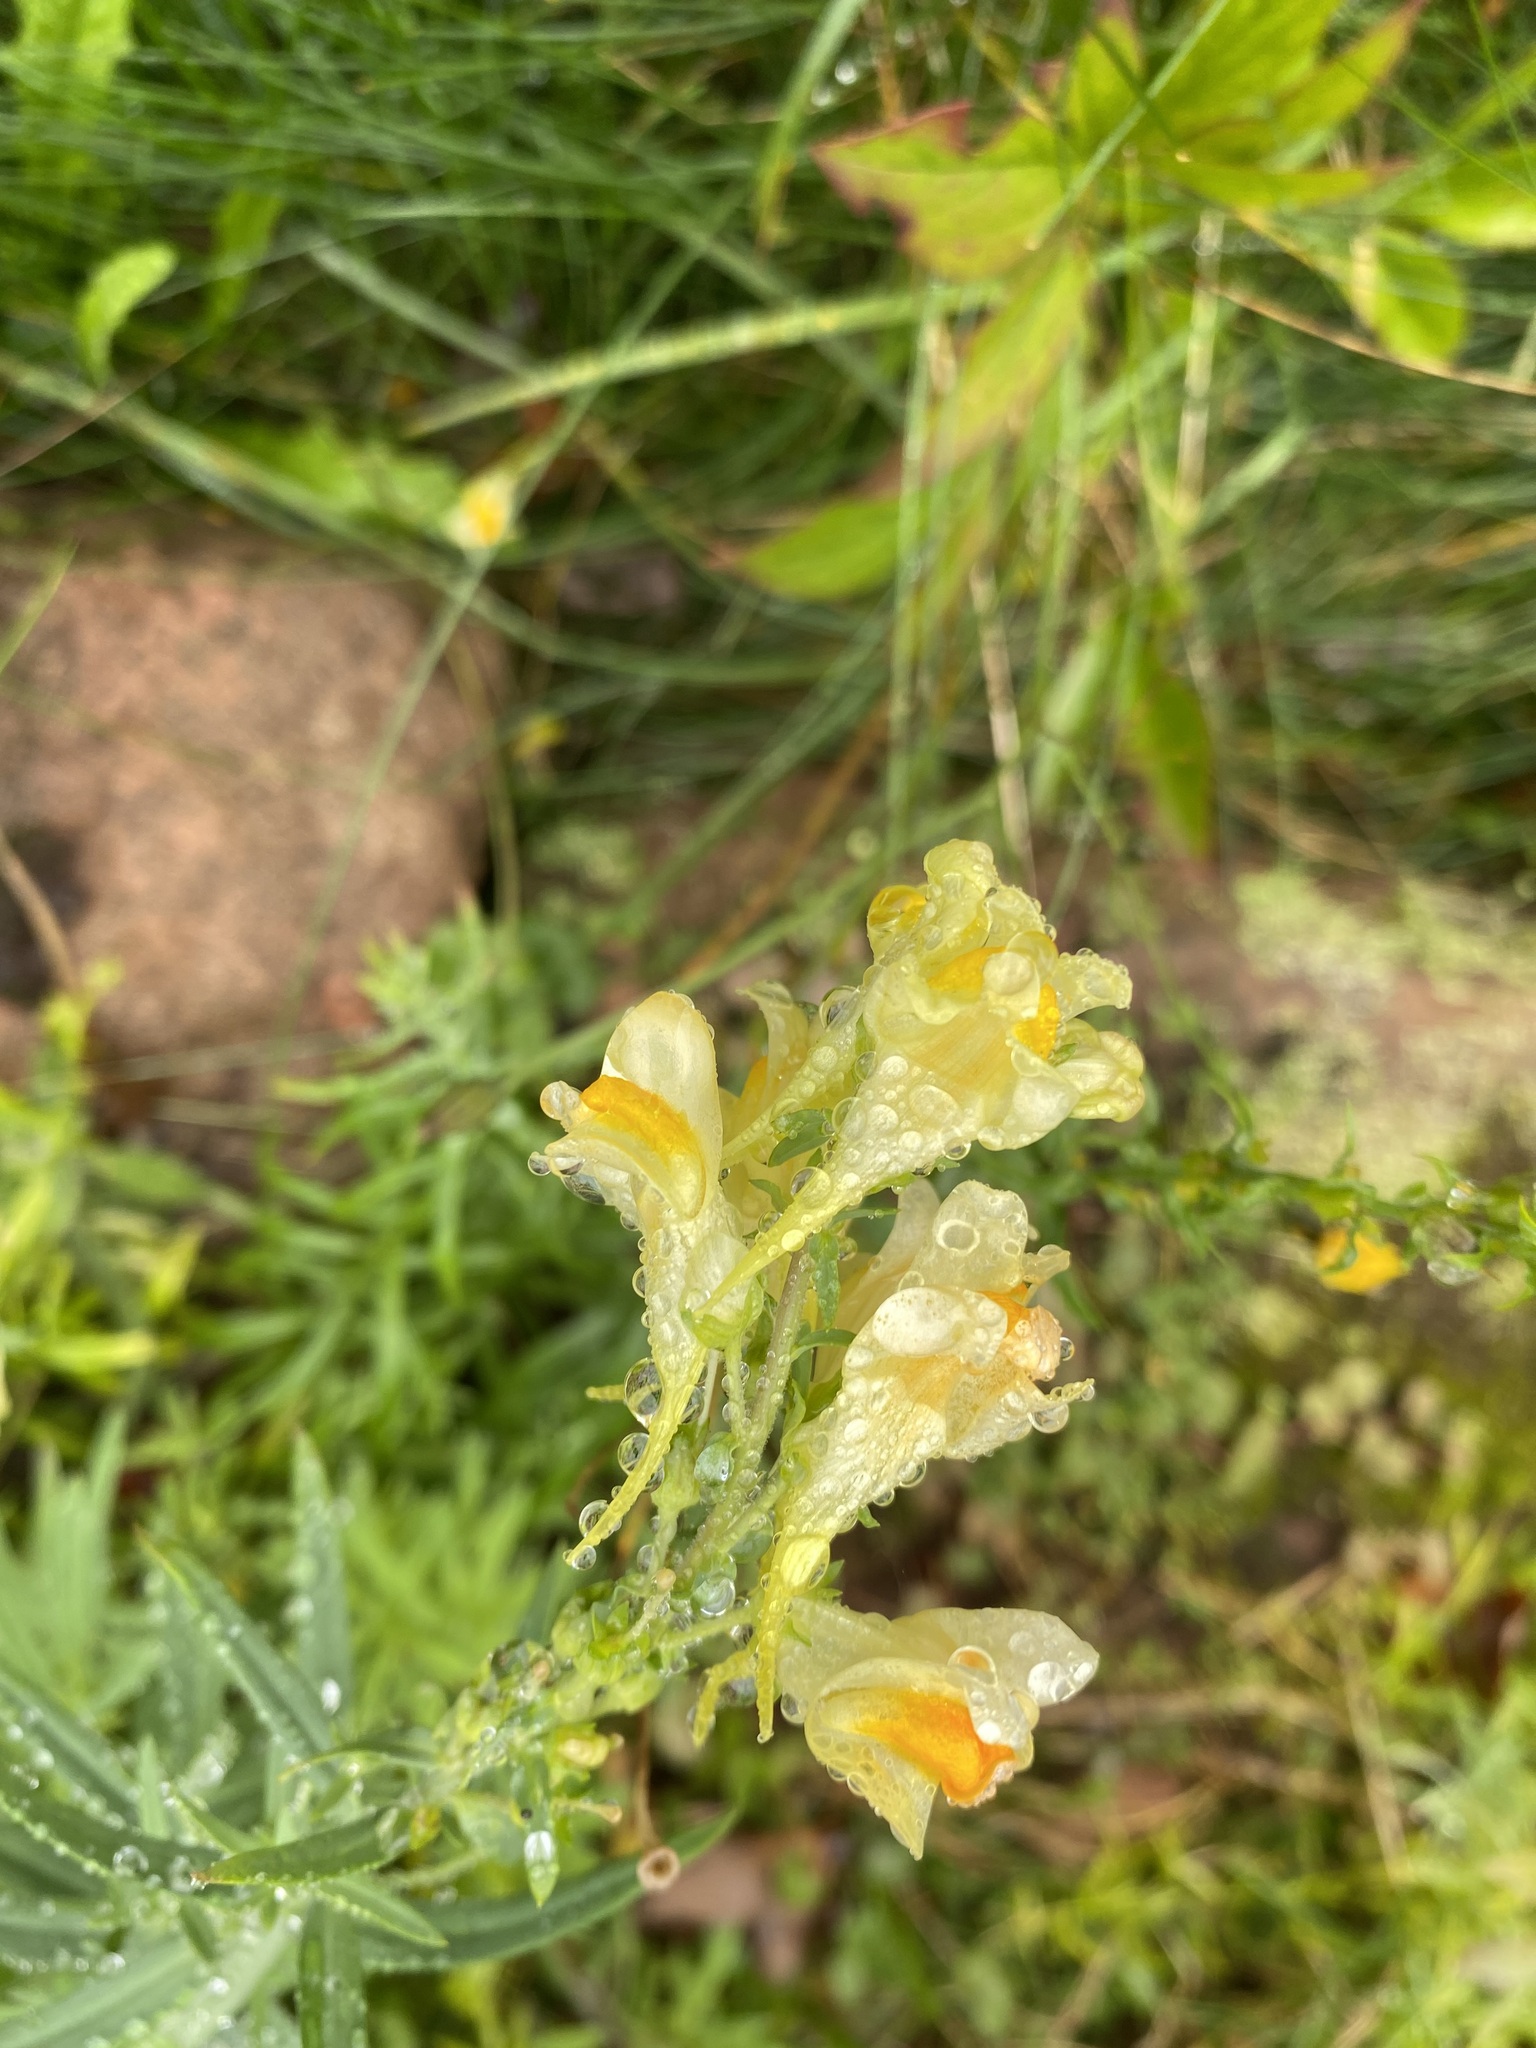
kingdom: Plantae
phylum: Tracheophyta
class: Magnoliopsida
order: Lamiales
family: Plantaginaceae
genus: Linaria
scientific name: Linaria vulgaris
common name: Butter and eggs
